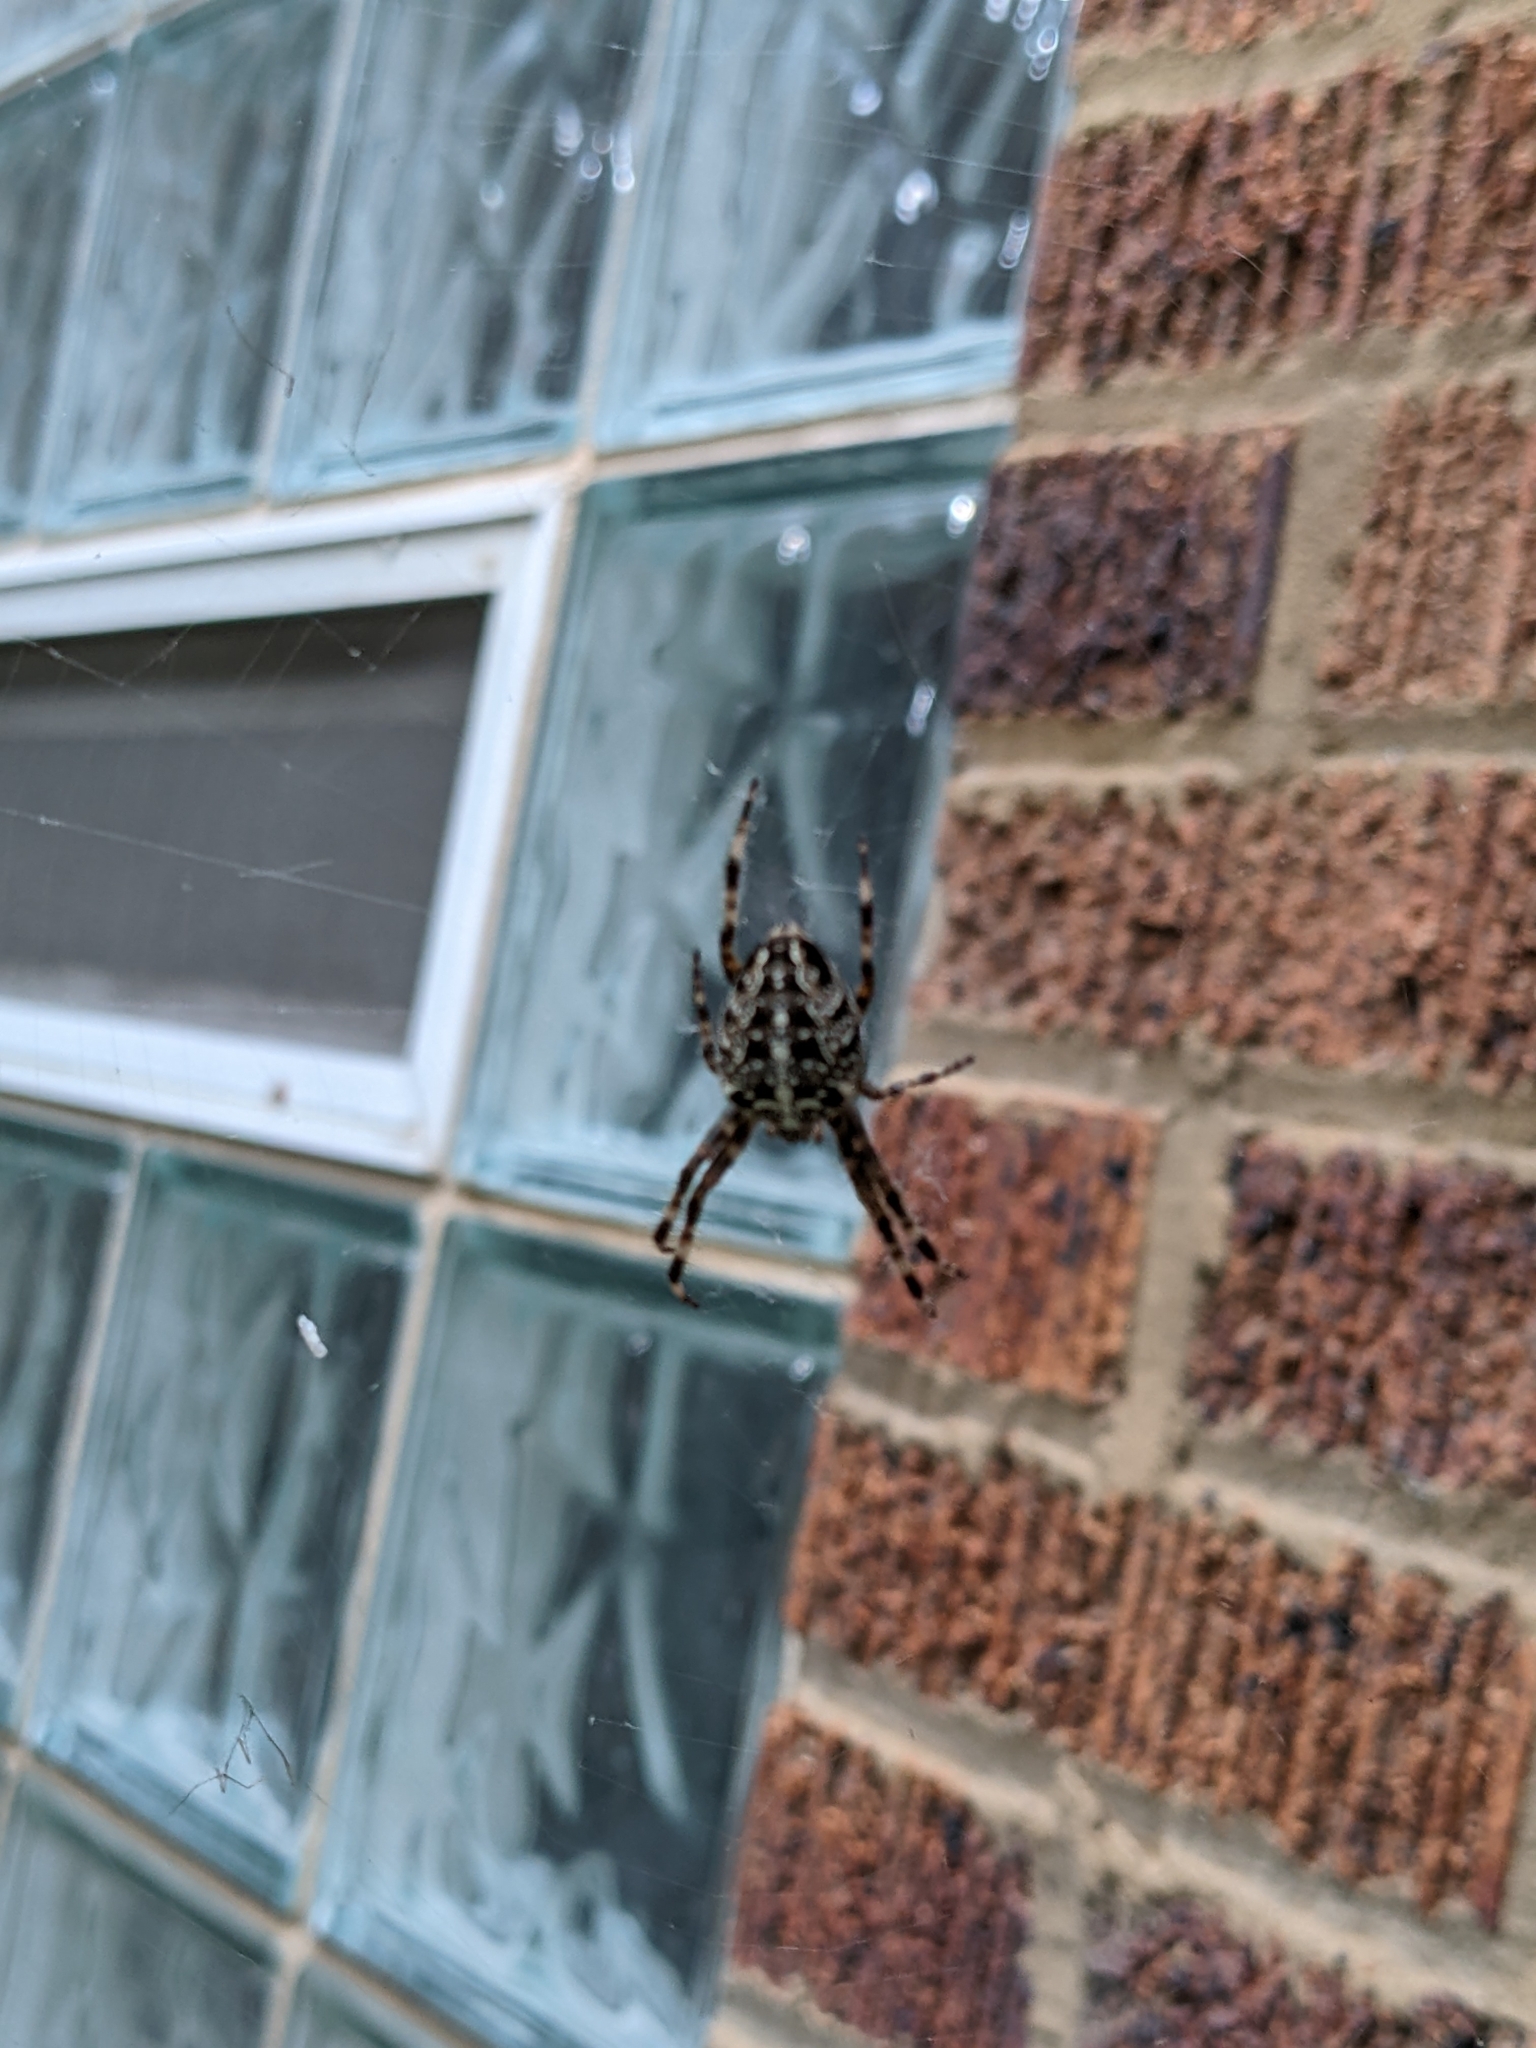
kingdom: Animalia
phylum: Arthropoda
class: Arachnida
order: Araneae
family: Araneidae
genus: Araneus
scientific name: Araneus diadematus
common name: Cross orbweaver
